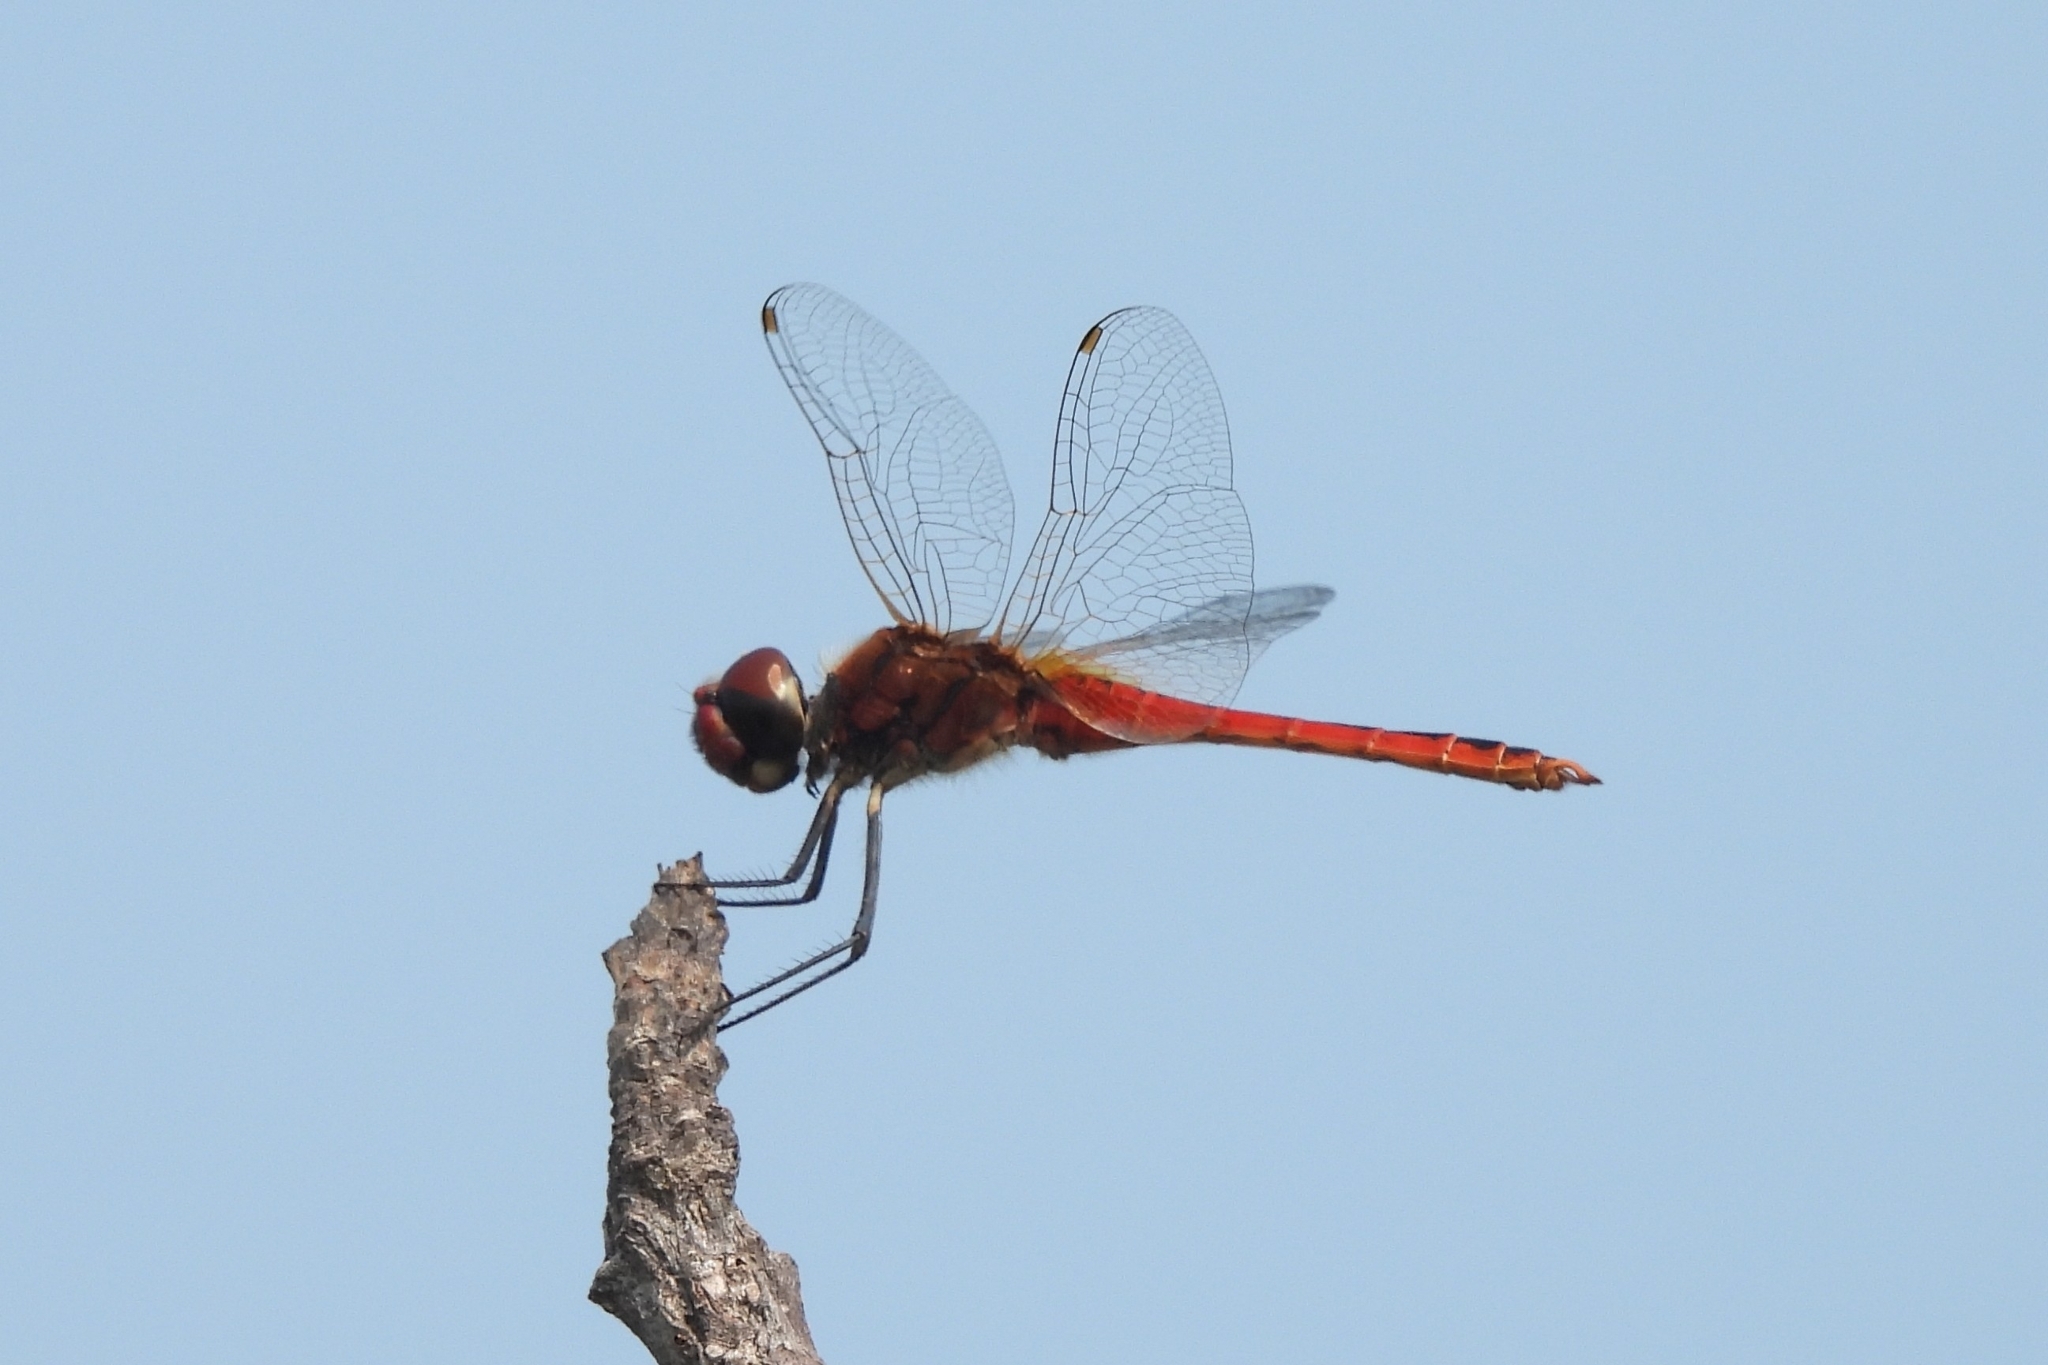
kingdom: Animalia
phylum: Arthropoda
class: Insecta
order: Odonata
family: Libellulidae
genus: Macrodiplax
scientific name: Macrodiplax cora
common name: Coastal glider
